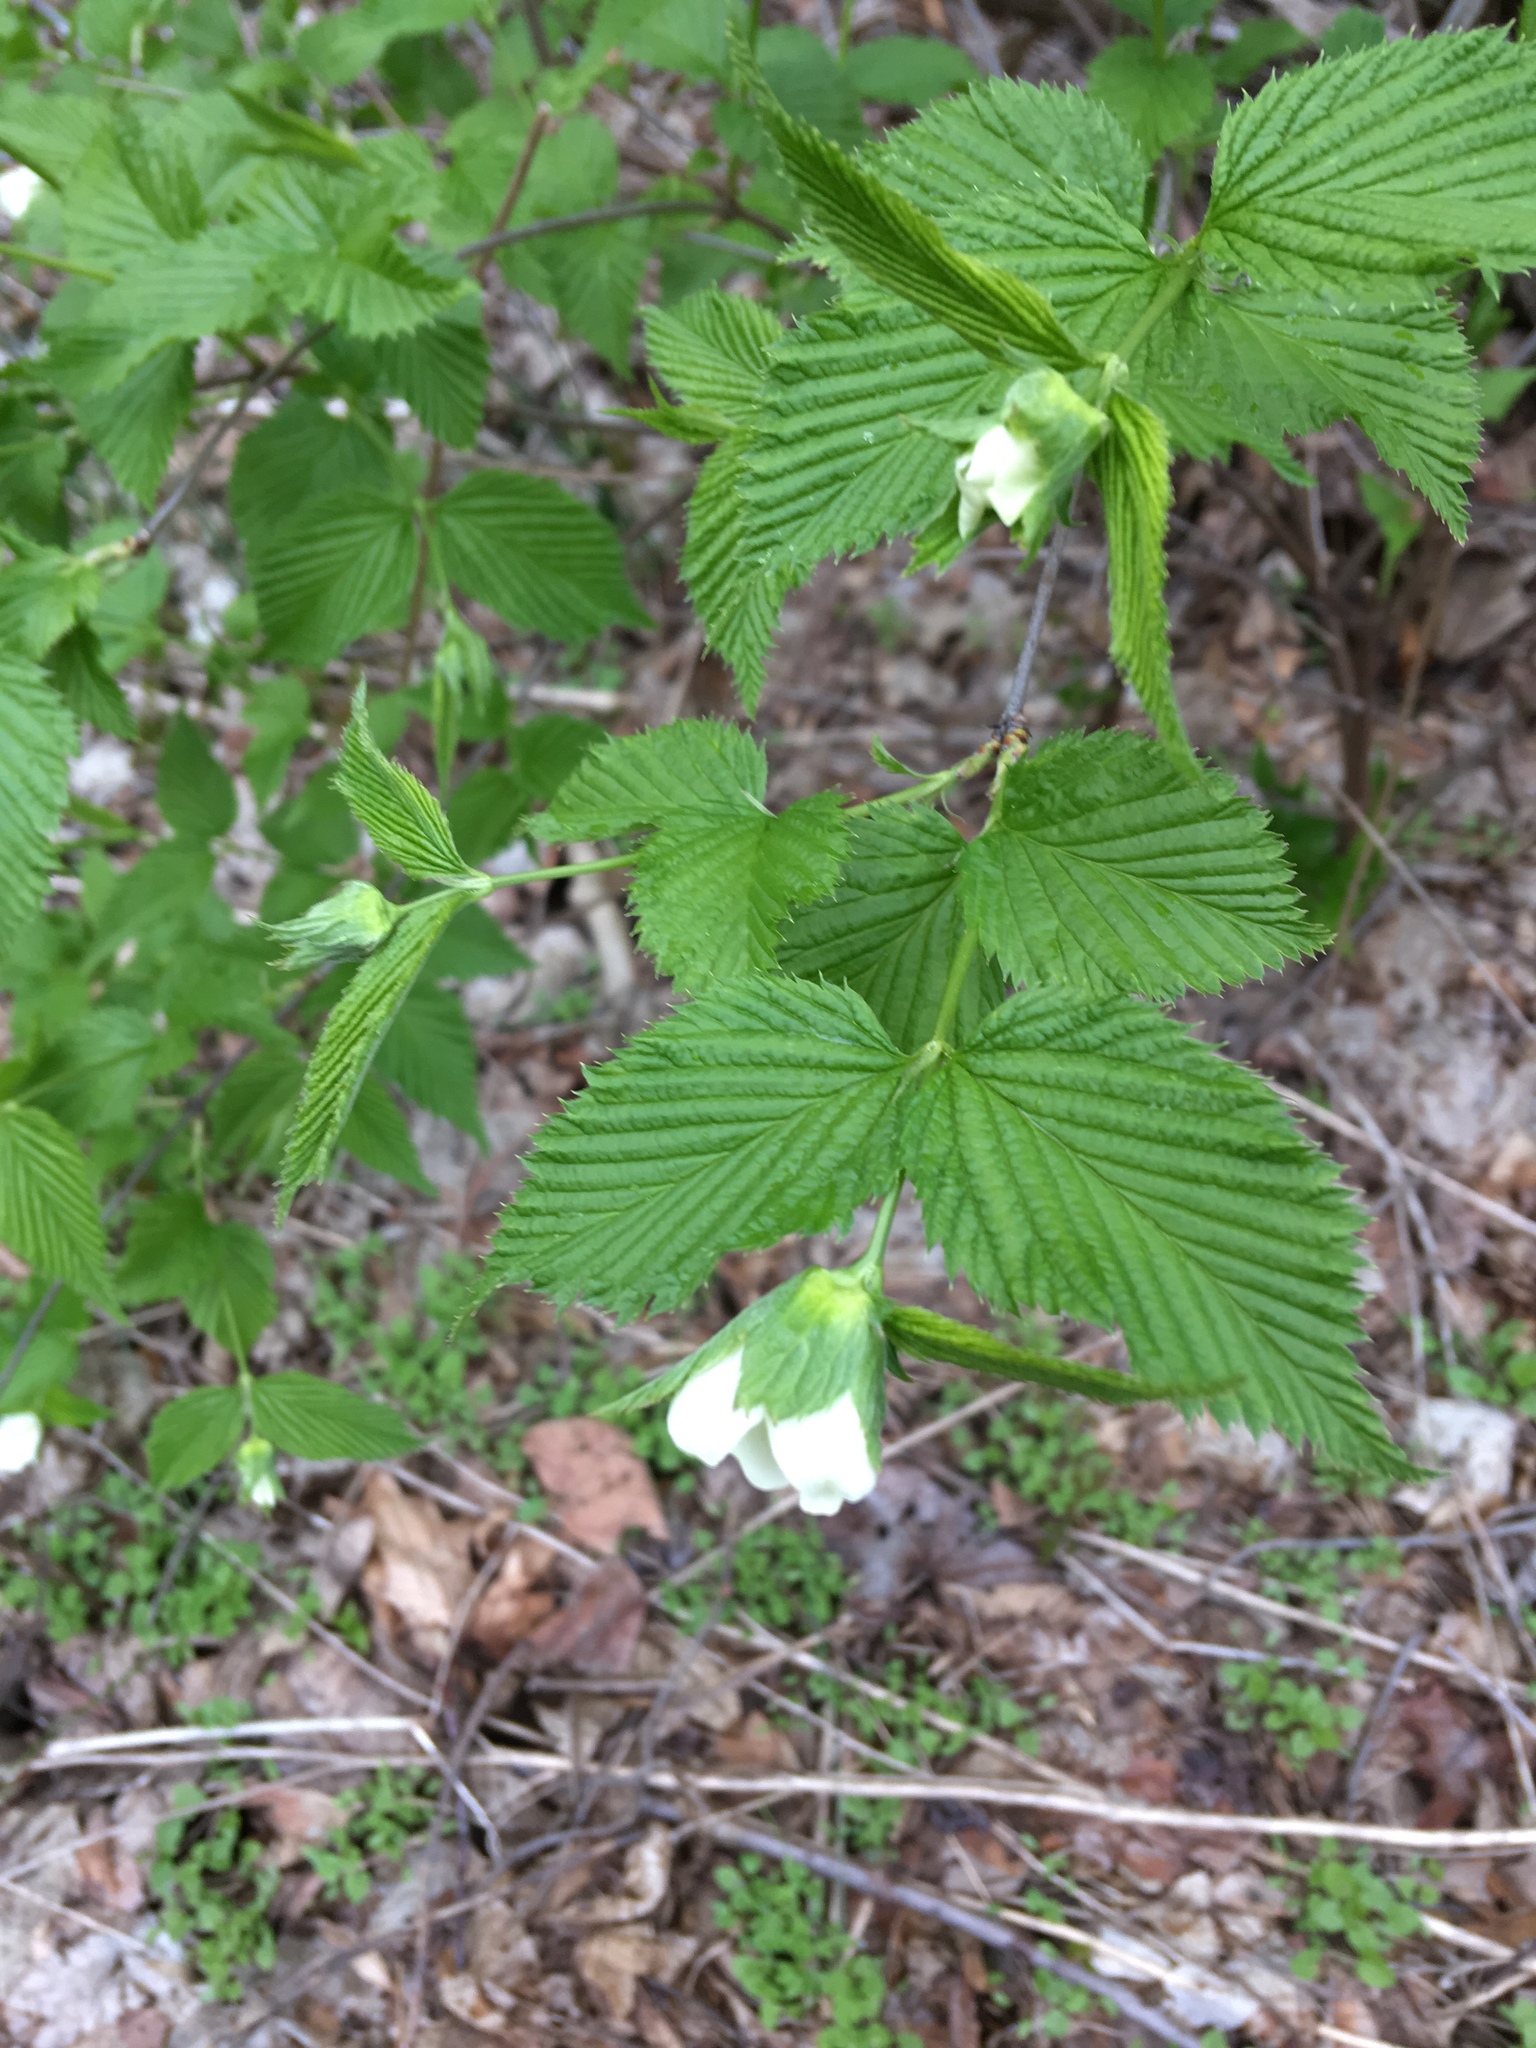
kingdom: Plantae
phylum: Tracheophyta
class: Magnoliopsida
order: Rosales
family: Rosaceae
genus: Rhodotypos
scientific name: Rhodotypos scandens
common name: Jetbead
